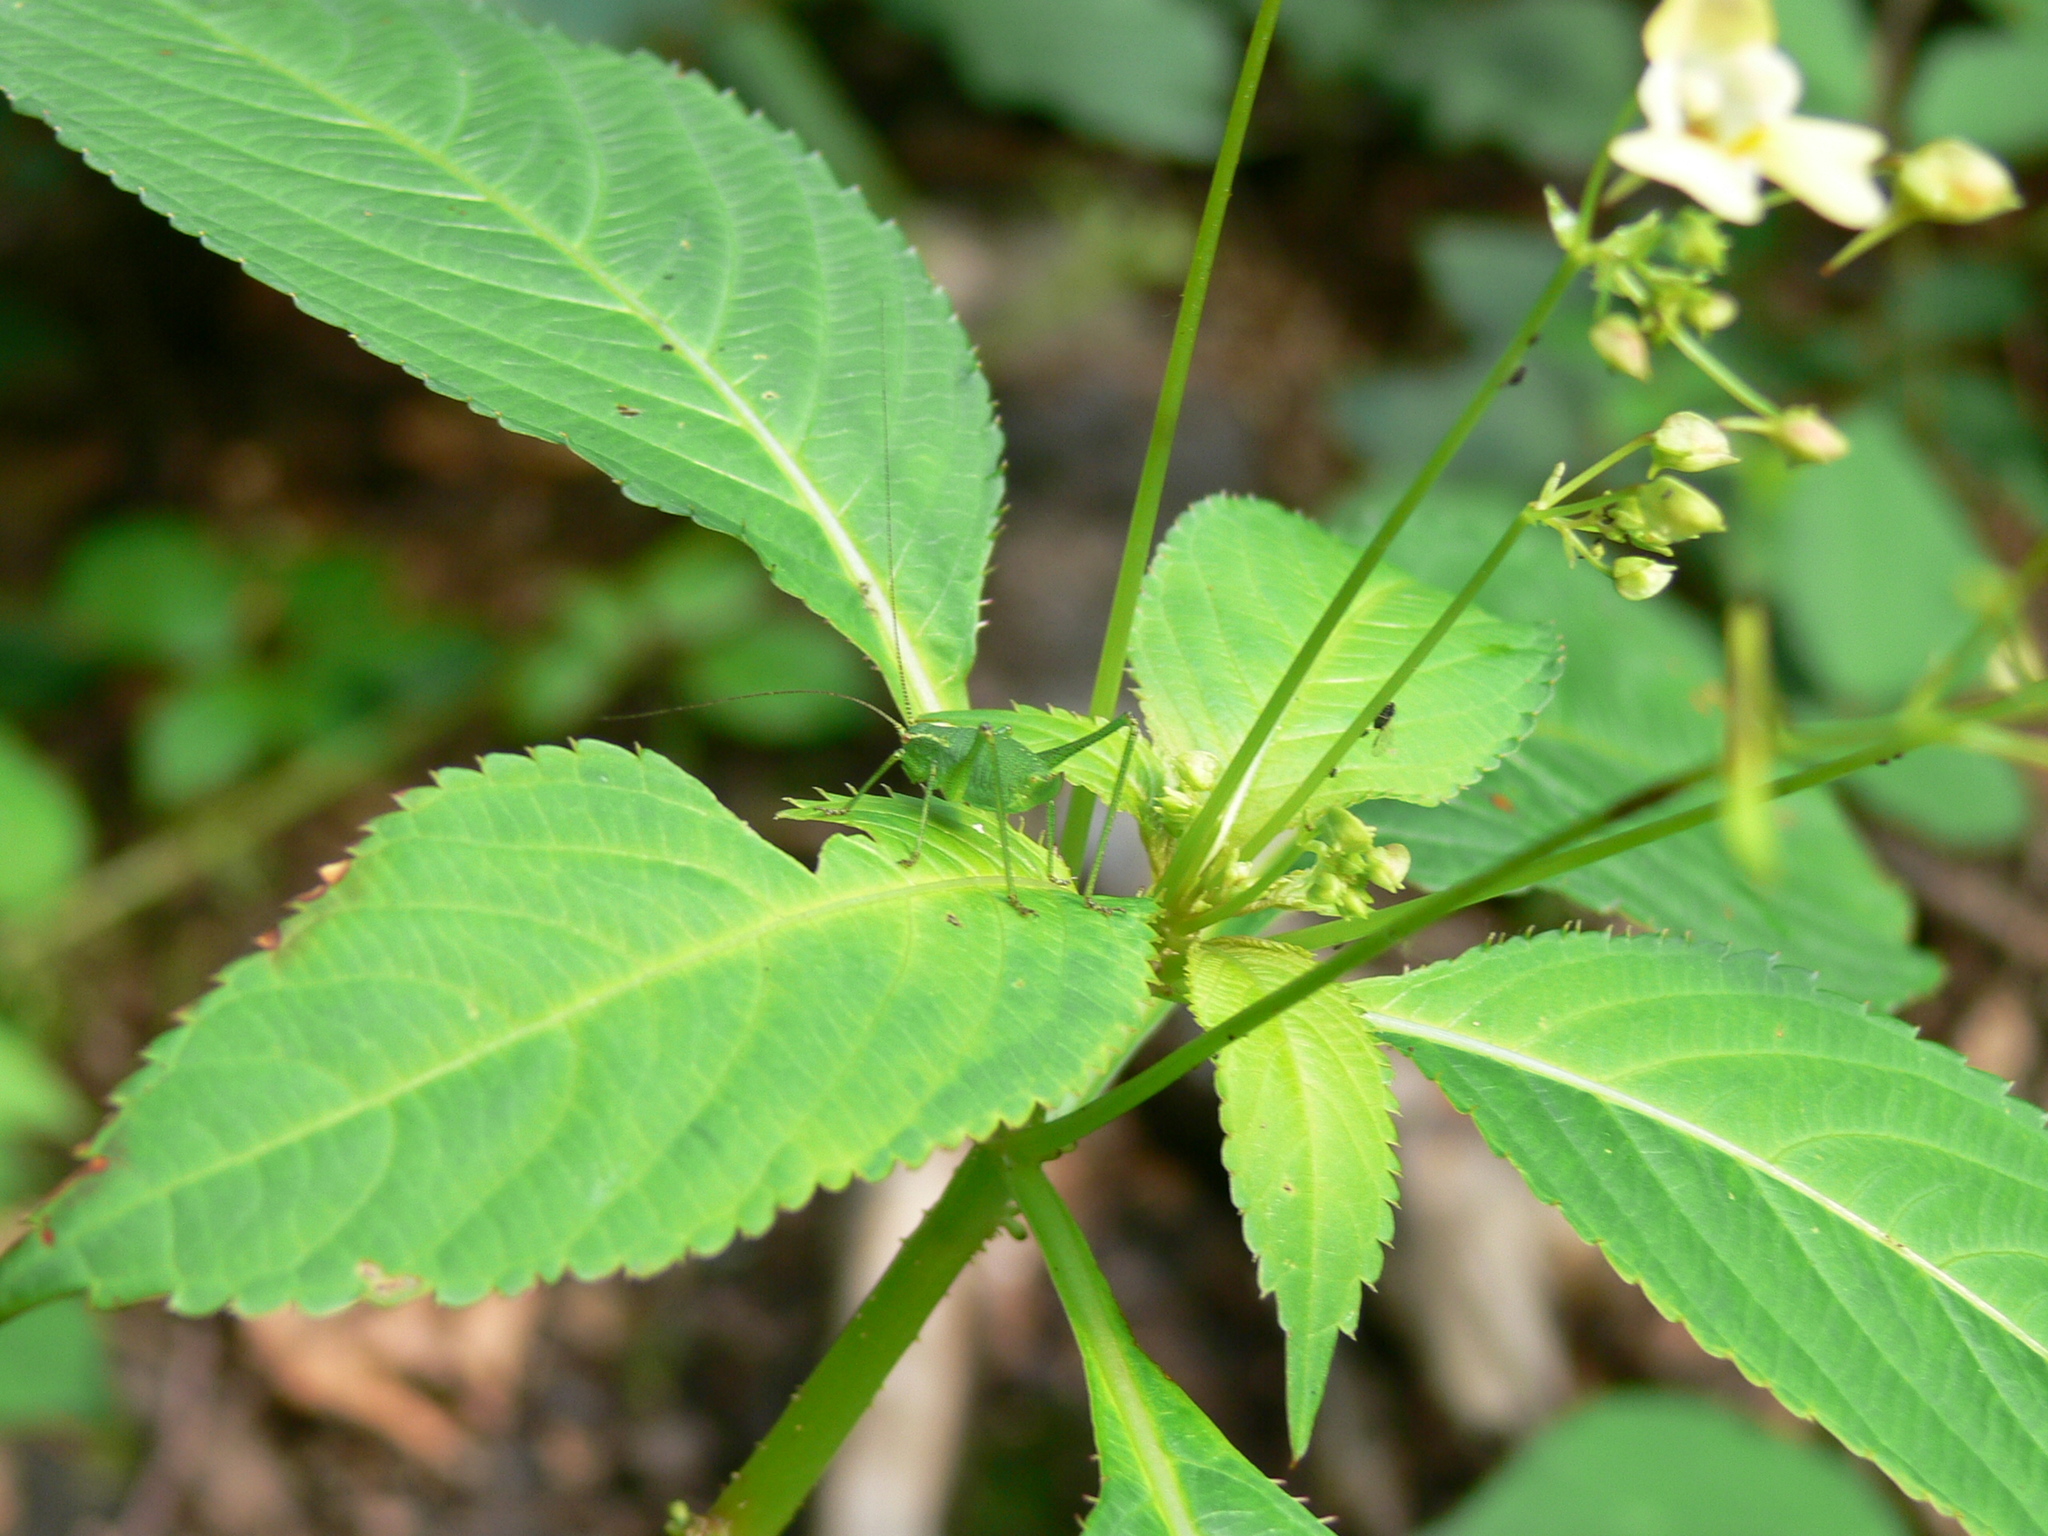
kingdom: Animalia
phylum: Arthropoda
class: Insecta
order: Orthoptera
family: Tettigoniidae
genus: Leptophyes
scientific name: Leptophyes punctatissima
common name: Speckled bush-cricket
